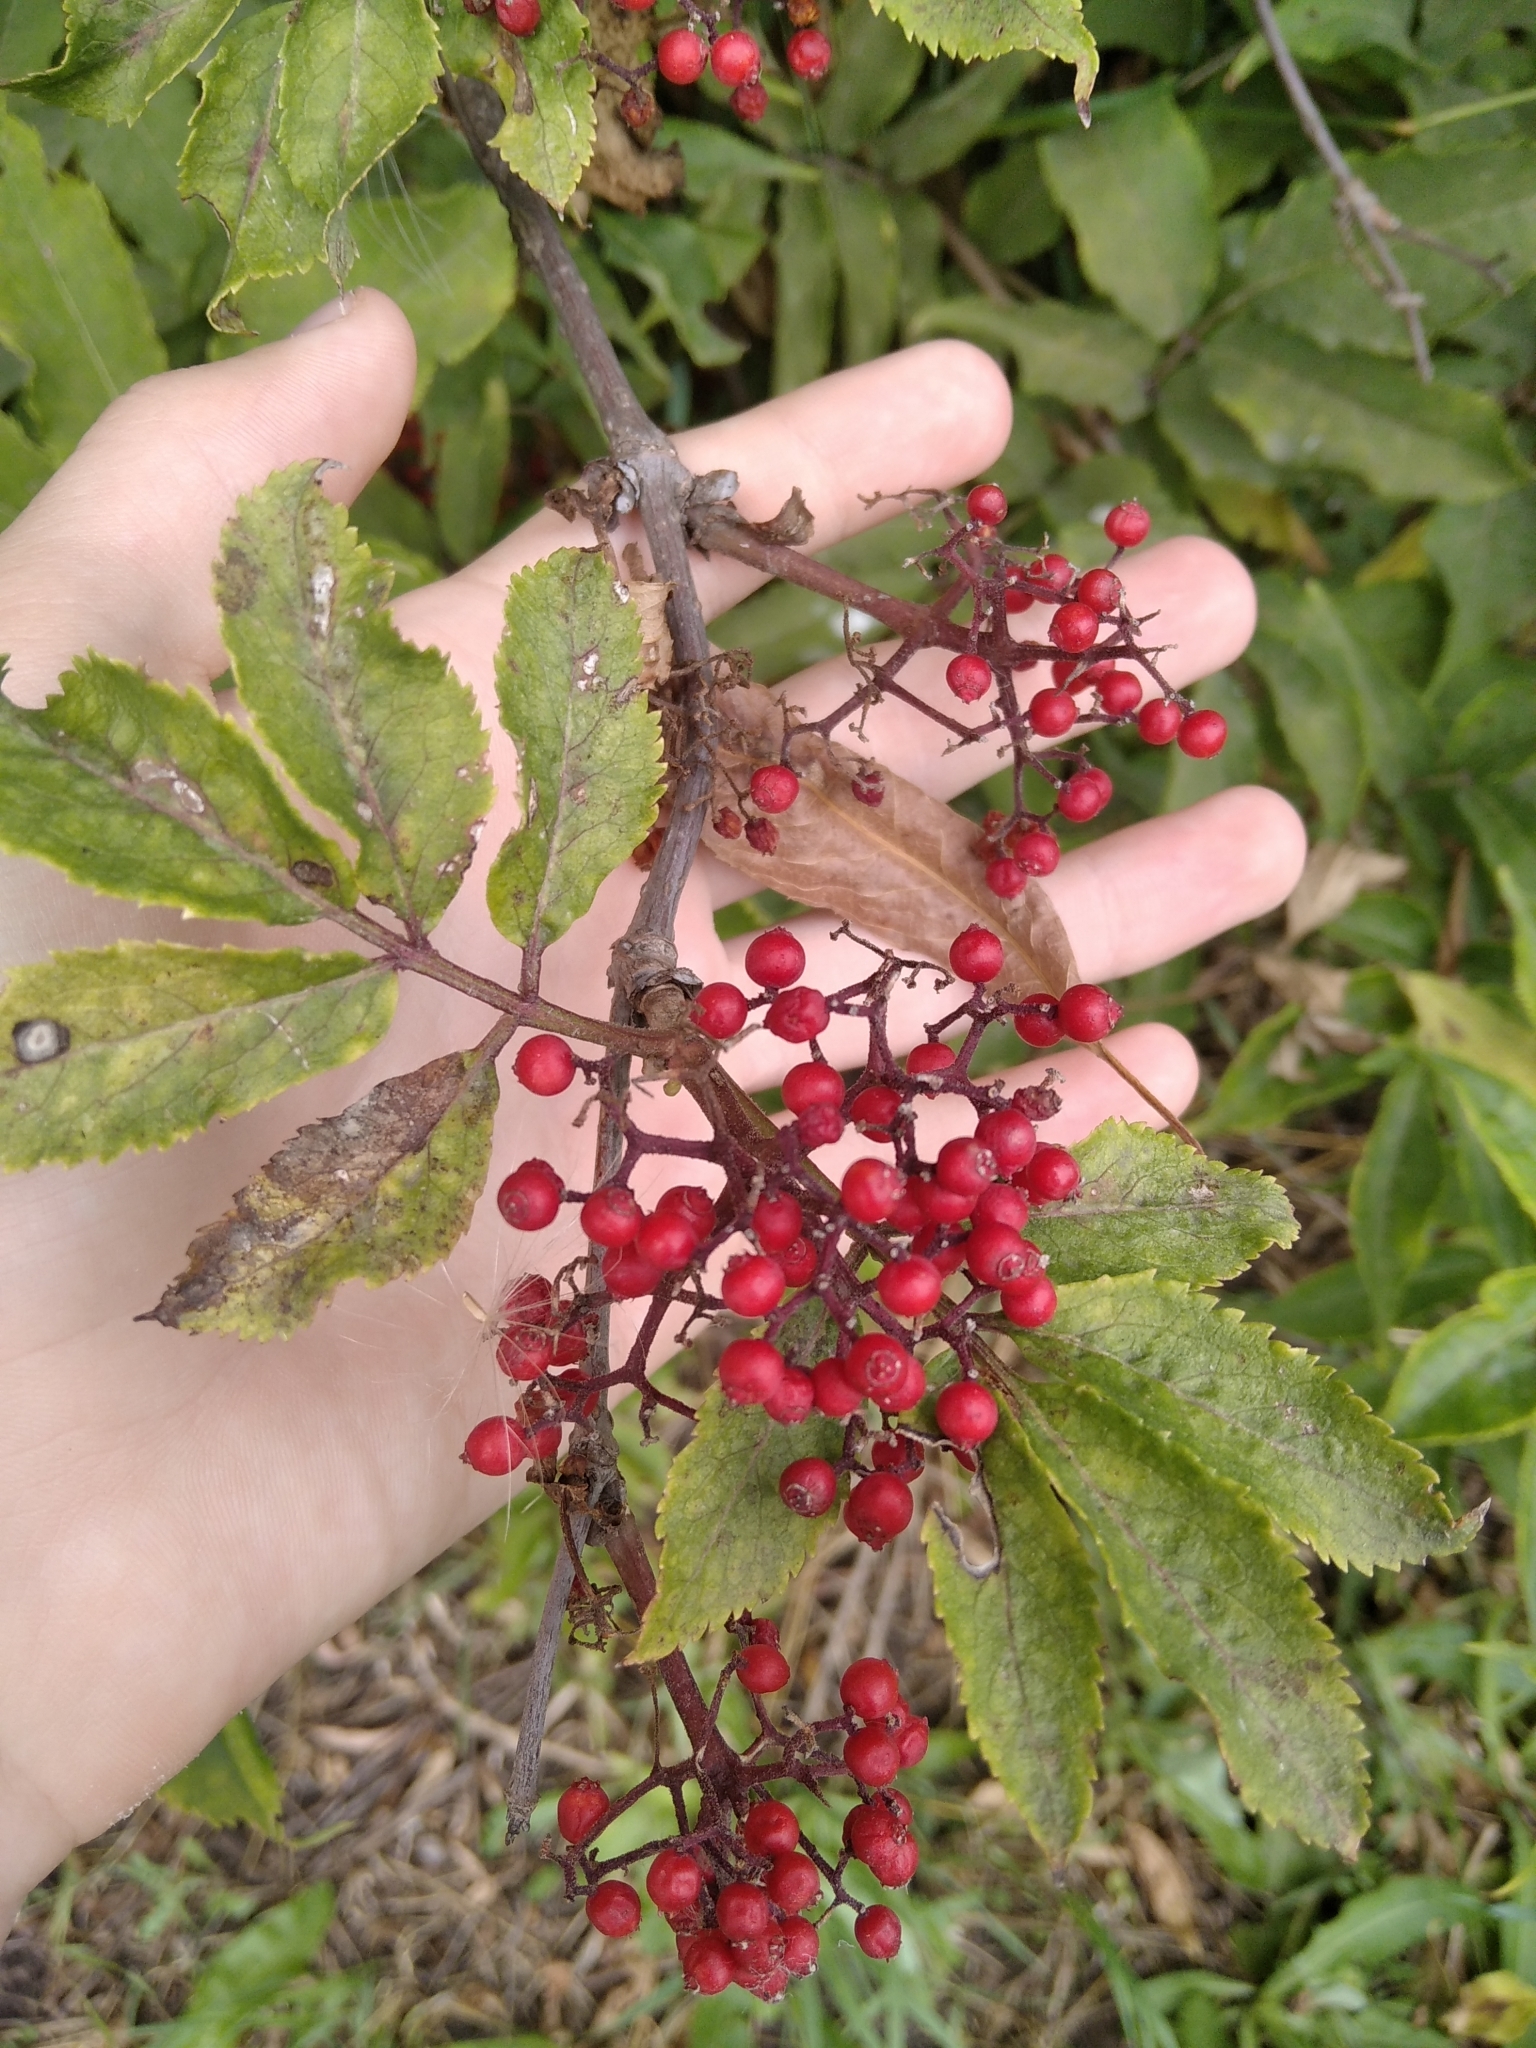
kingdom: Plantae
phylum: Tracheophyta
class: Magnoliopsida
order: Dipsacales
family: Viburnaceae
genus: Sambucus
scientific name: Sambucus racemosa
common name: Red-berried elder
